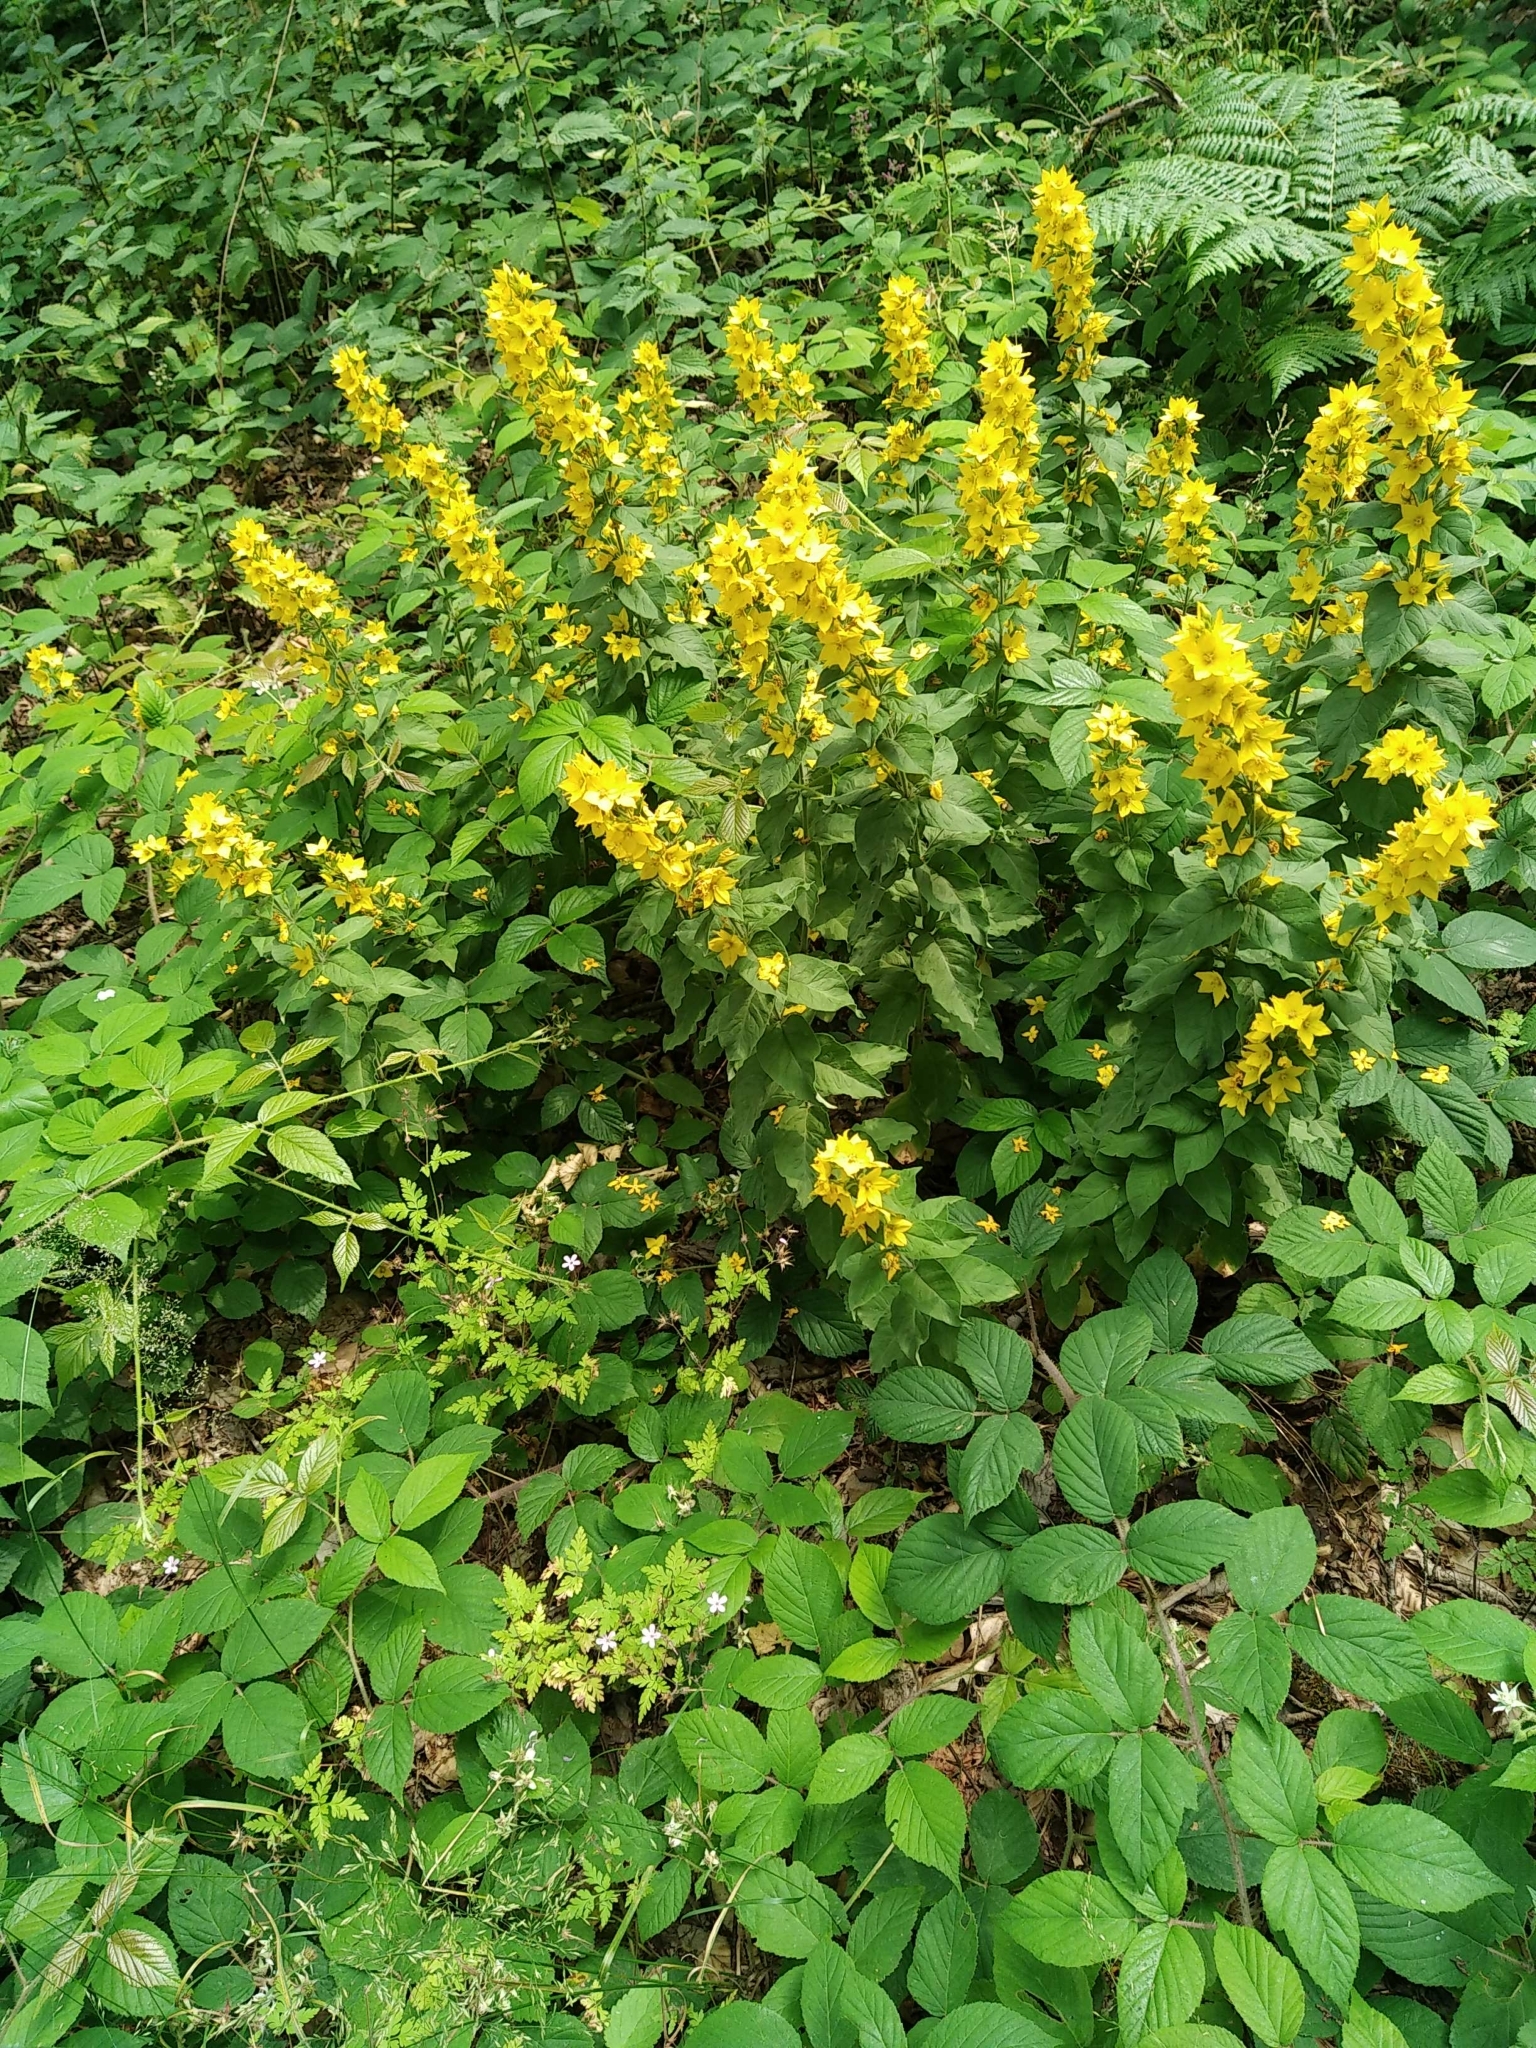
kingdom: Plantae
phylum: Tracheophyta
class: Magnoliopsida
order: Ericales
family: Primulaceae
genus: Lysimachia
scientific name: Lysimachia punctata
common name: Dotted loosestrife
